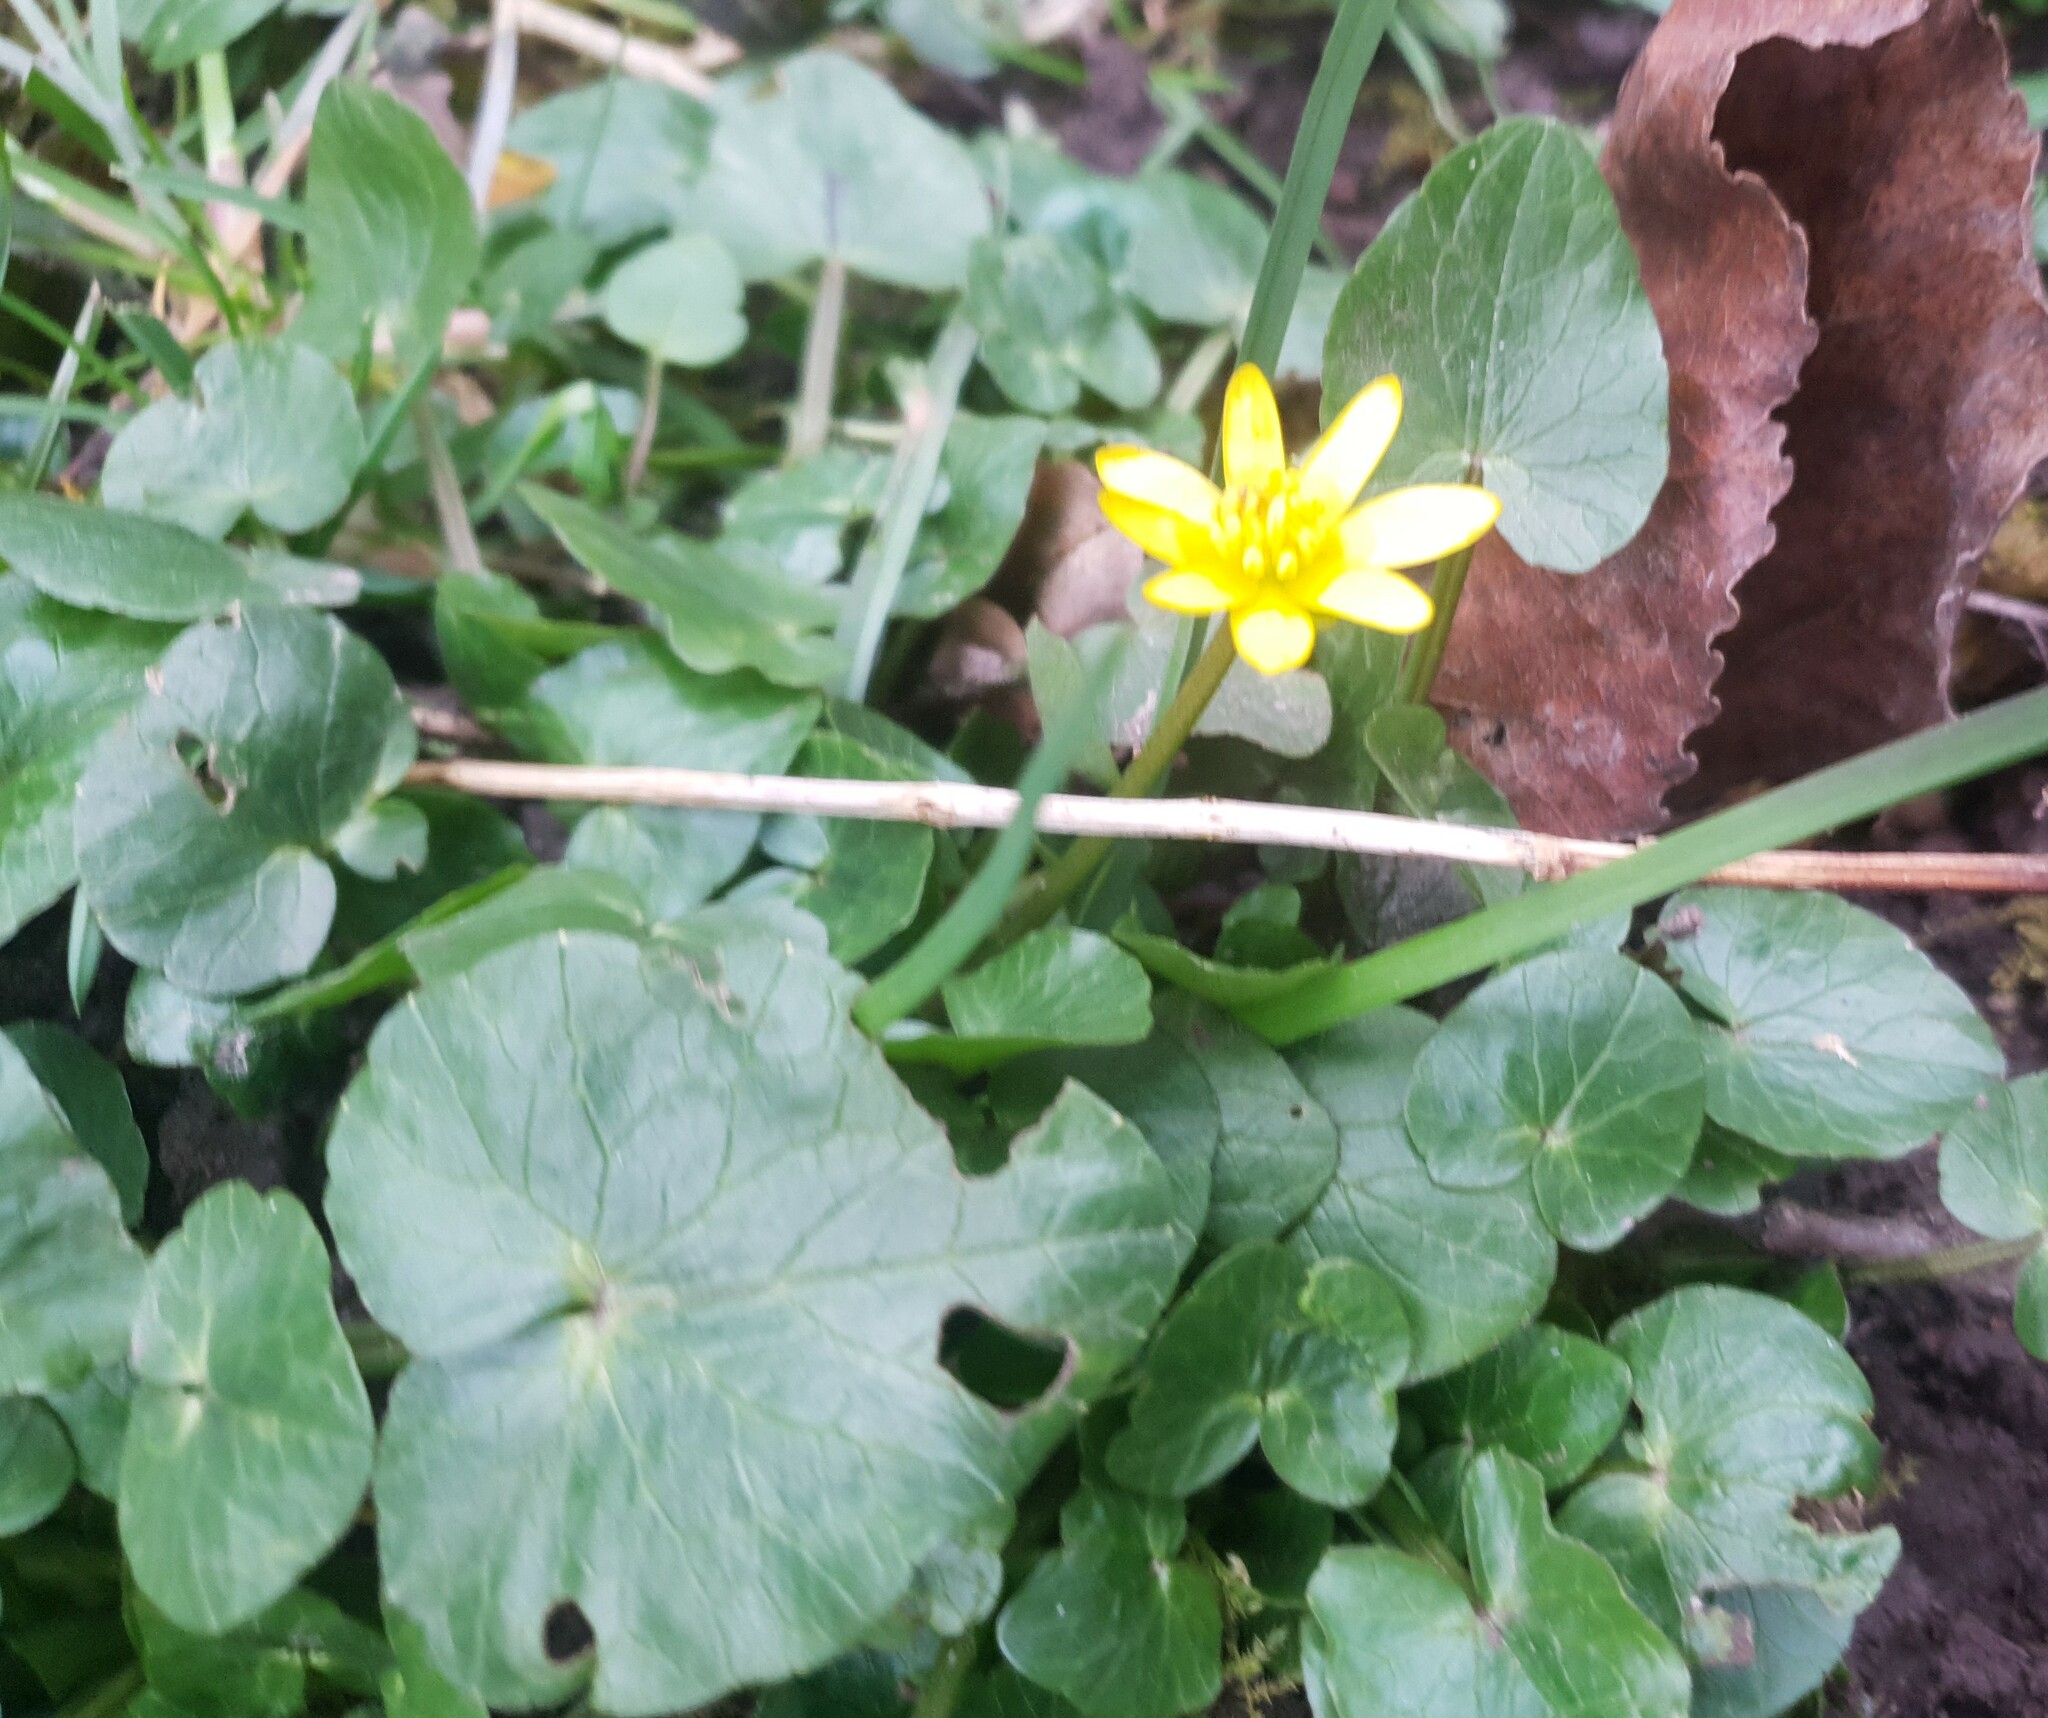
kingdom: Plantae
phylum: Tracheophyta
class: Magnoliopsida
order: Ranunculales
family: Ranunculaceae
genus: Ficaria
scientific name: Ficaria verna
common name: Lesser celandine
